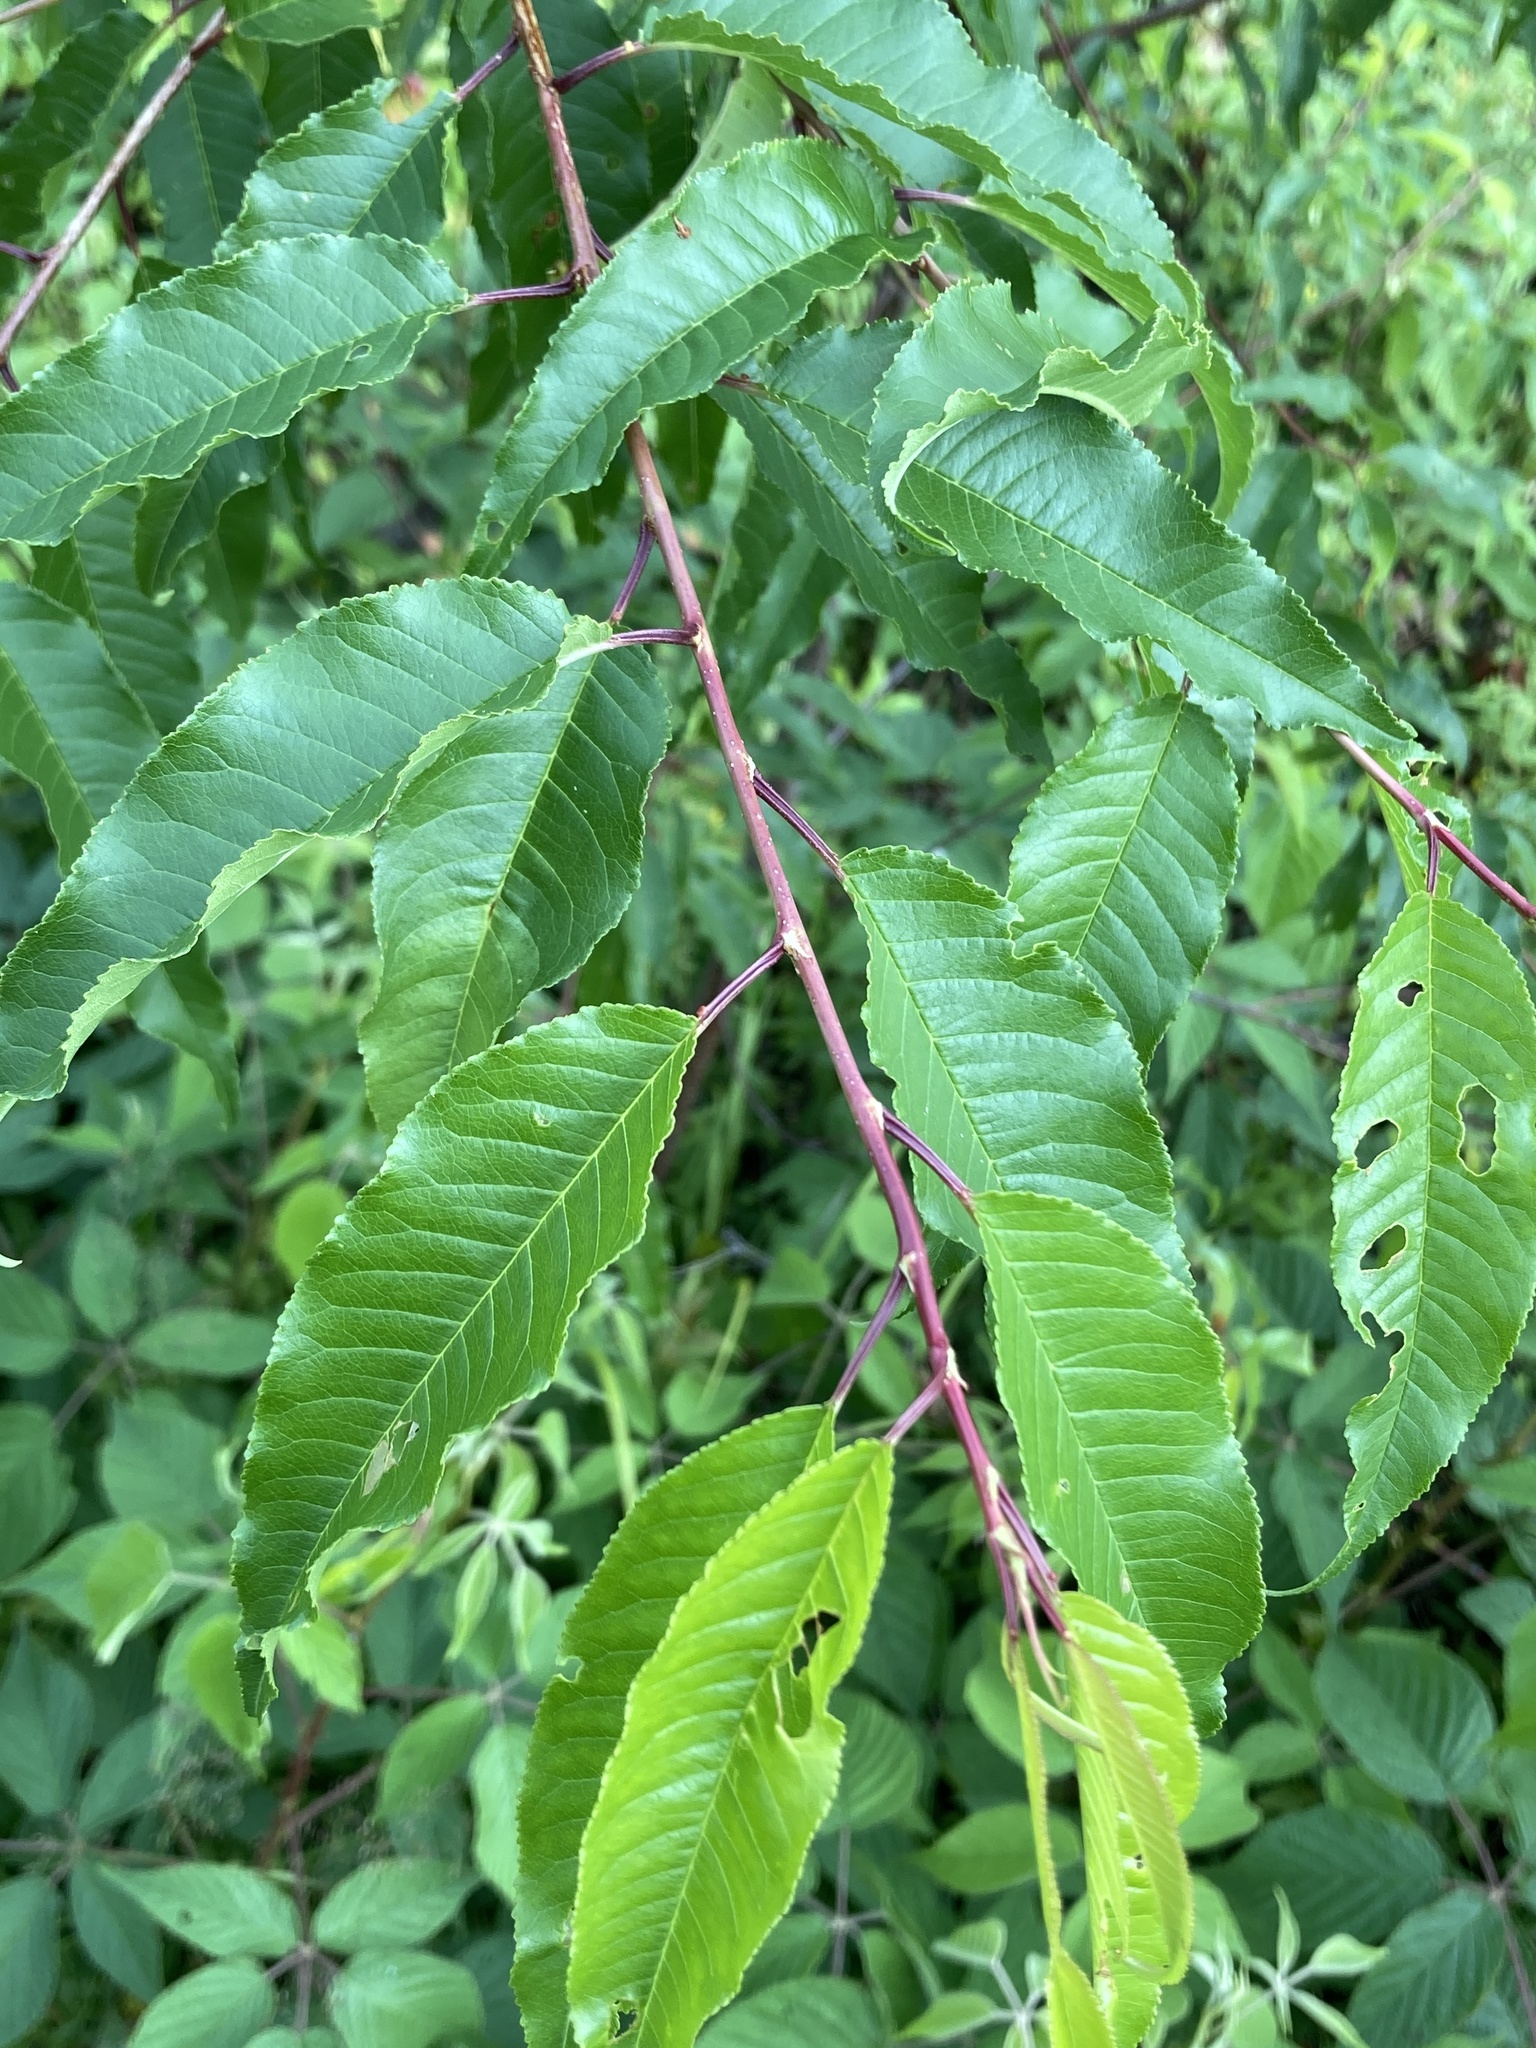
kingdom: Plantae
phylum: Tracheophyta
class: Magnoliopsida
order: Rosales
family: Rosaceae
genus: Prunus
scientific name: Prunus pensylvanica
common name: Pin cherry
